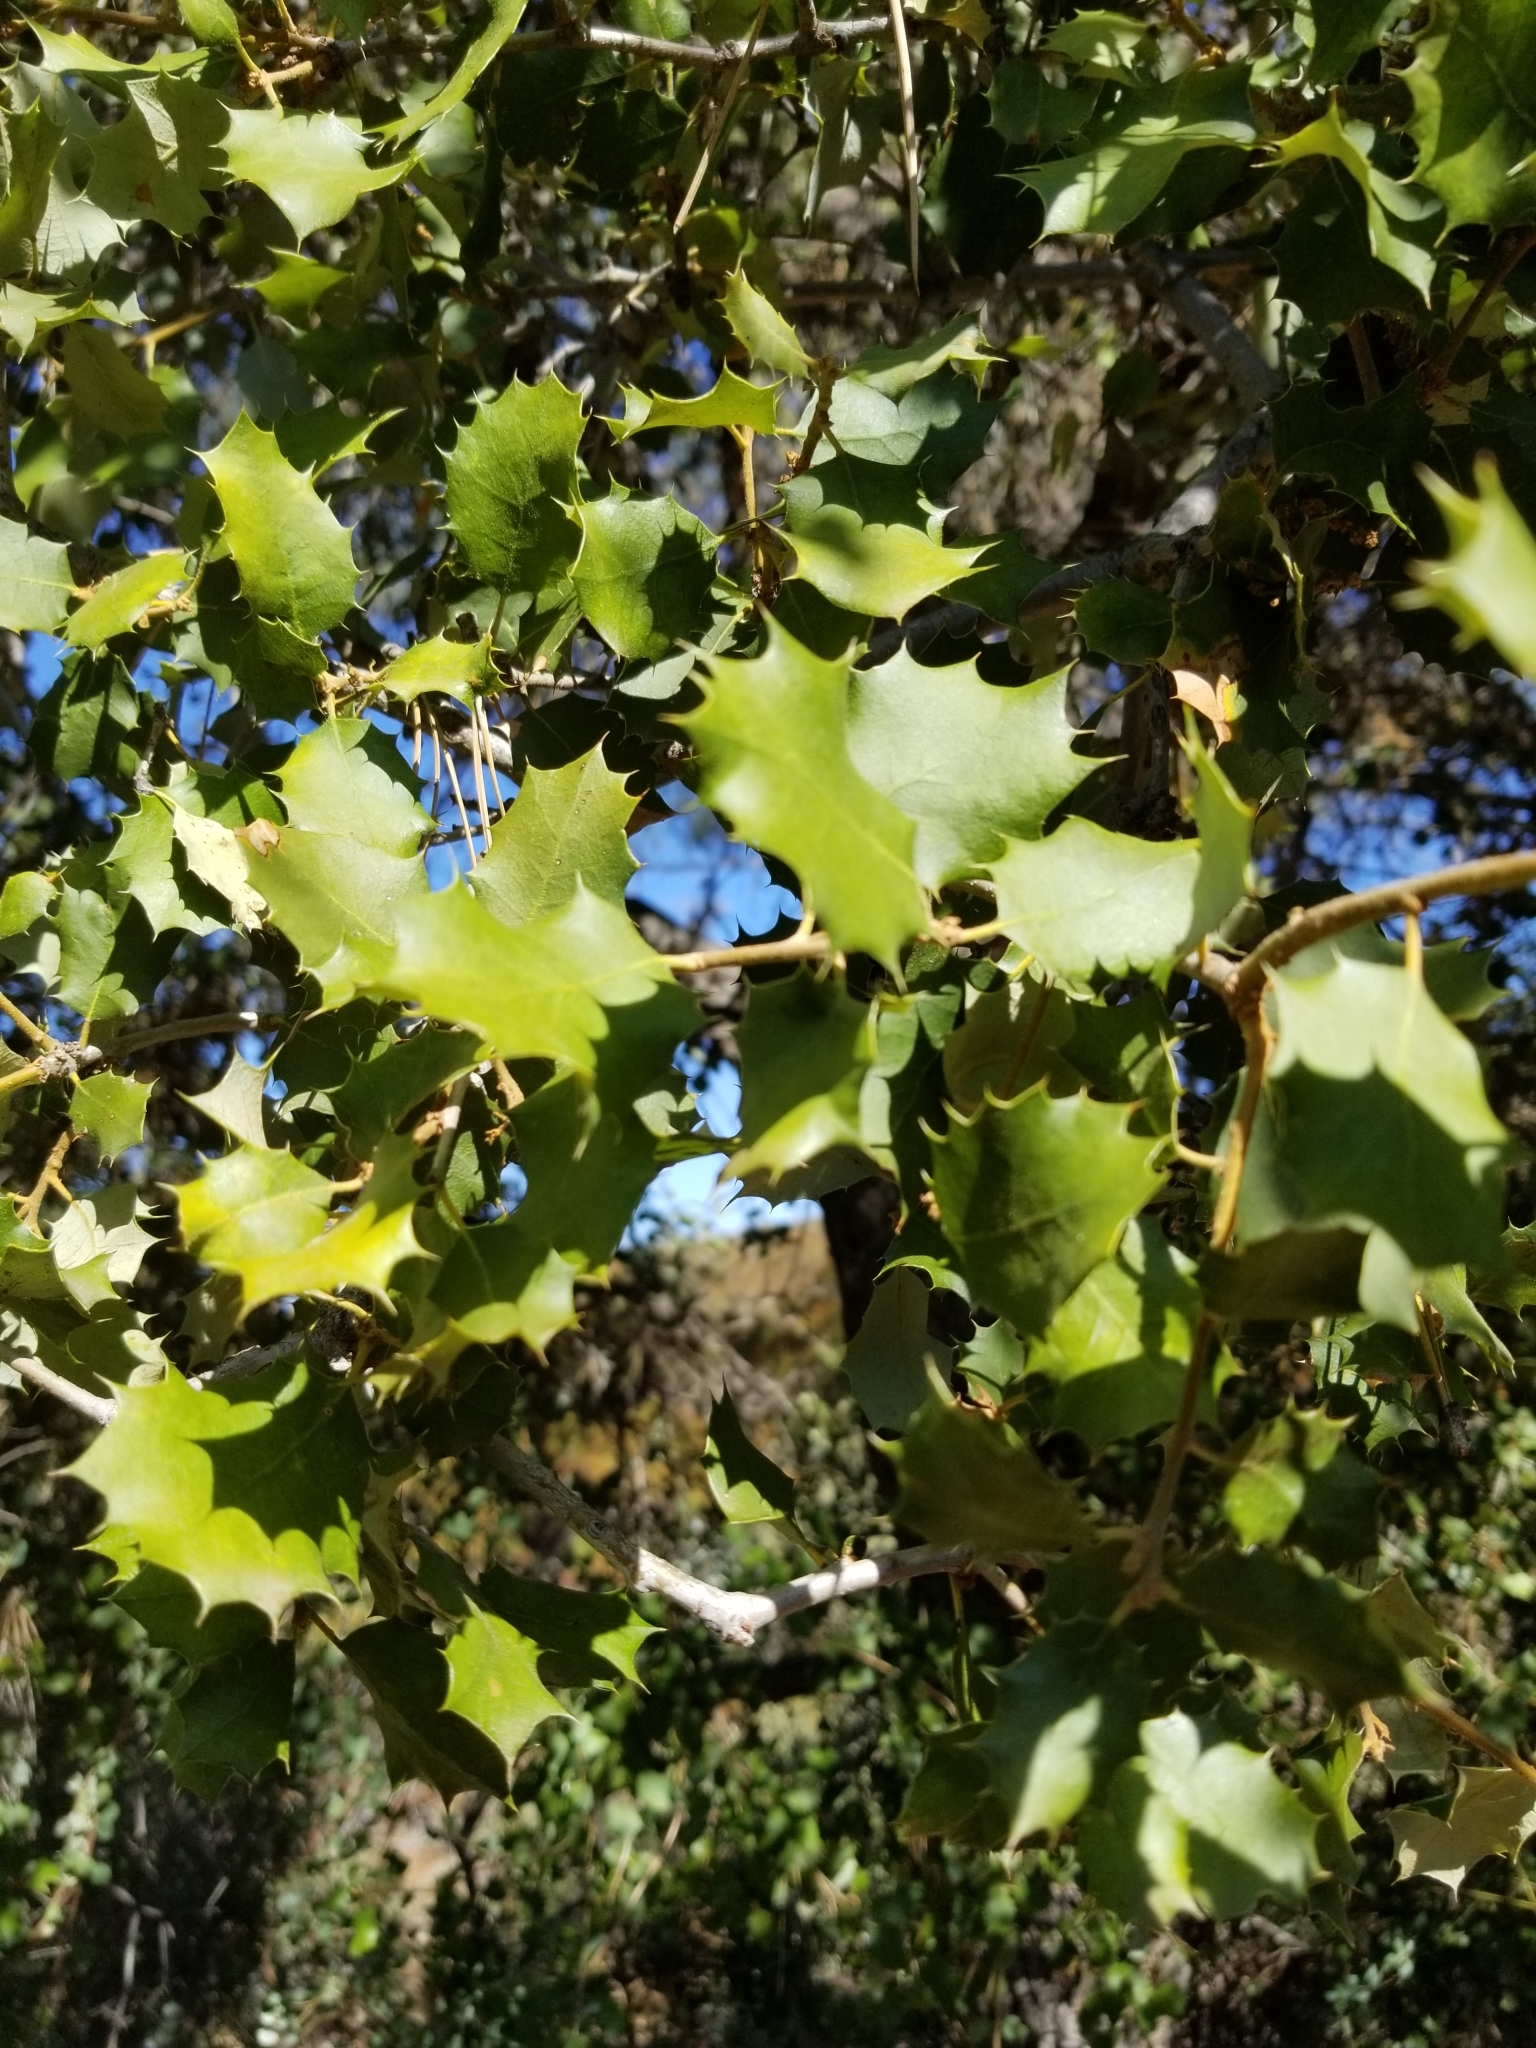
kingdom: Plantae
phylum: Tracheophyta
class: Magnoliopsida
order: Fagales
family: Fagaceae
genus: Quercus
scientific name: Quercus palmeri
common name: Dunn oak
